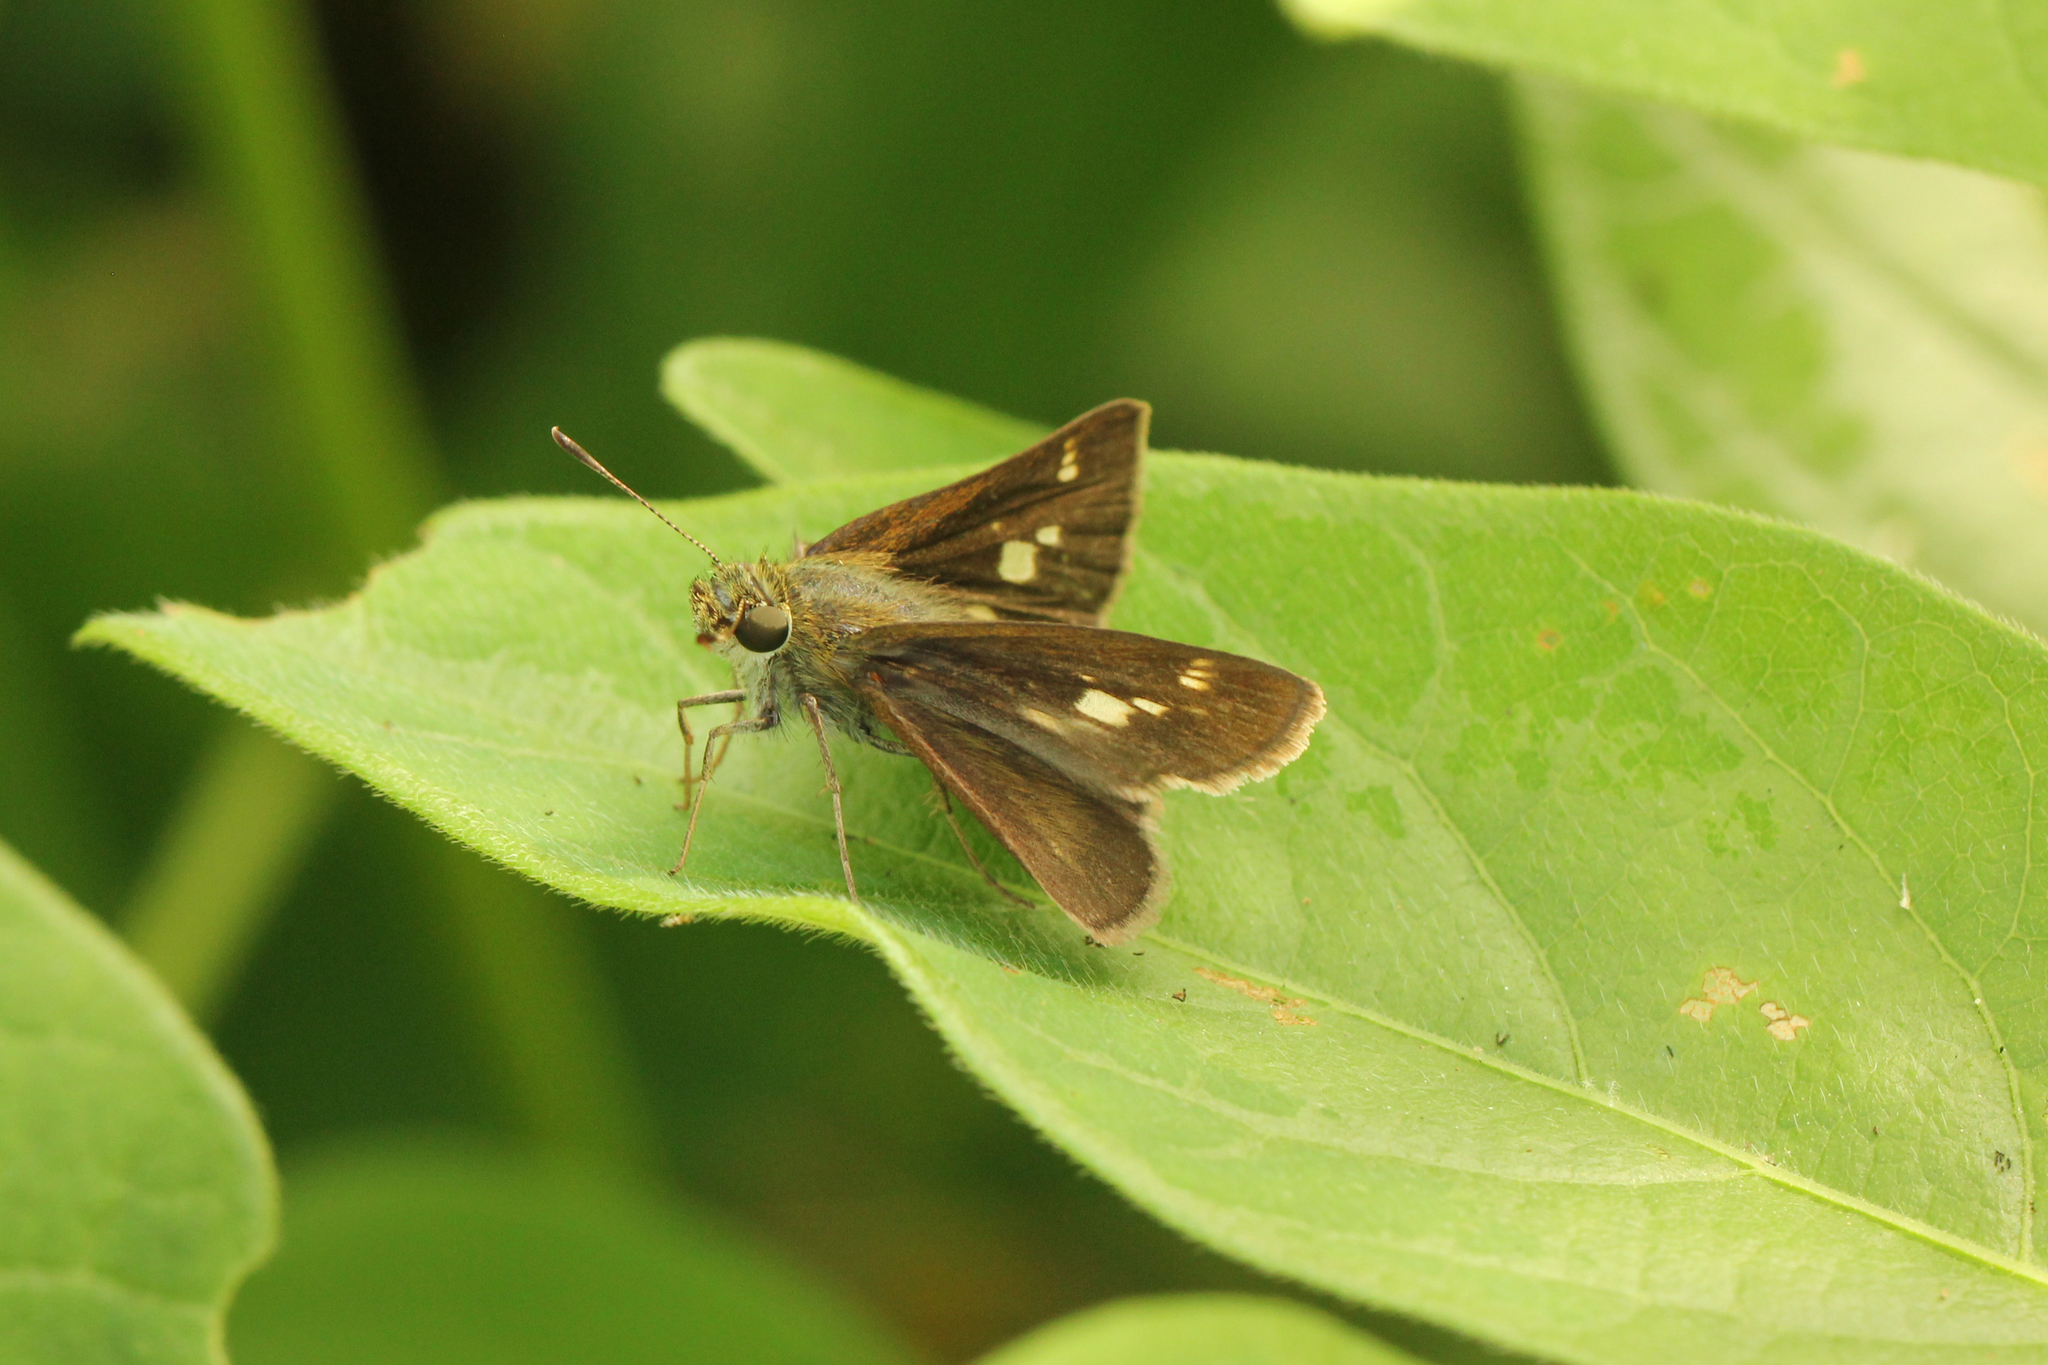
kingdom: Animalia
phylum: Arthropoda
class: Insecta
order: Lepidoptera
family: Hesperiidae
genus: Vernia
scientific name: Vernia verna
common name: Little glassywing
